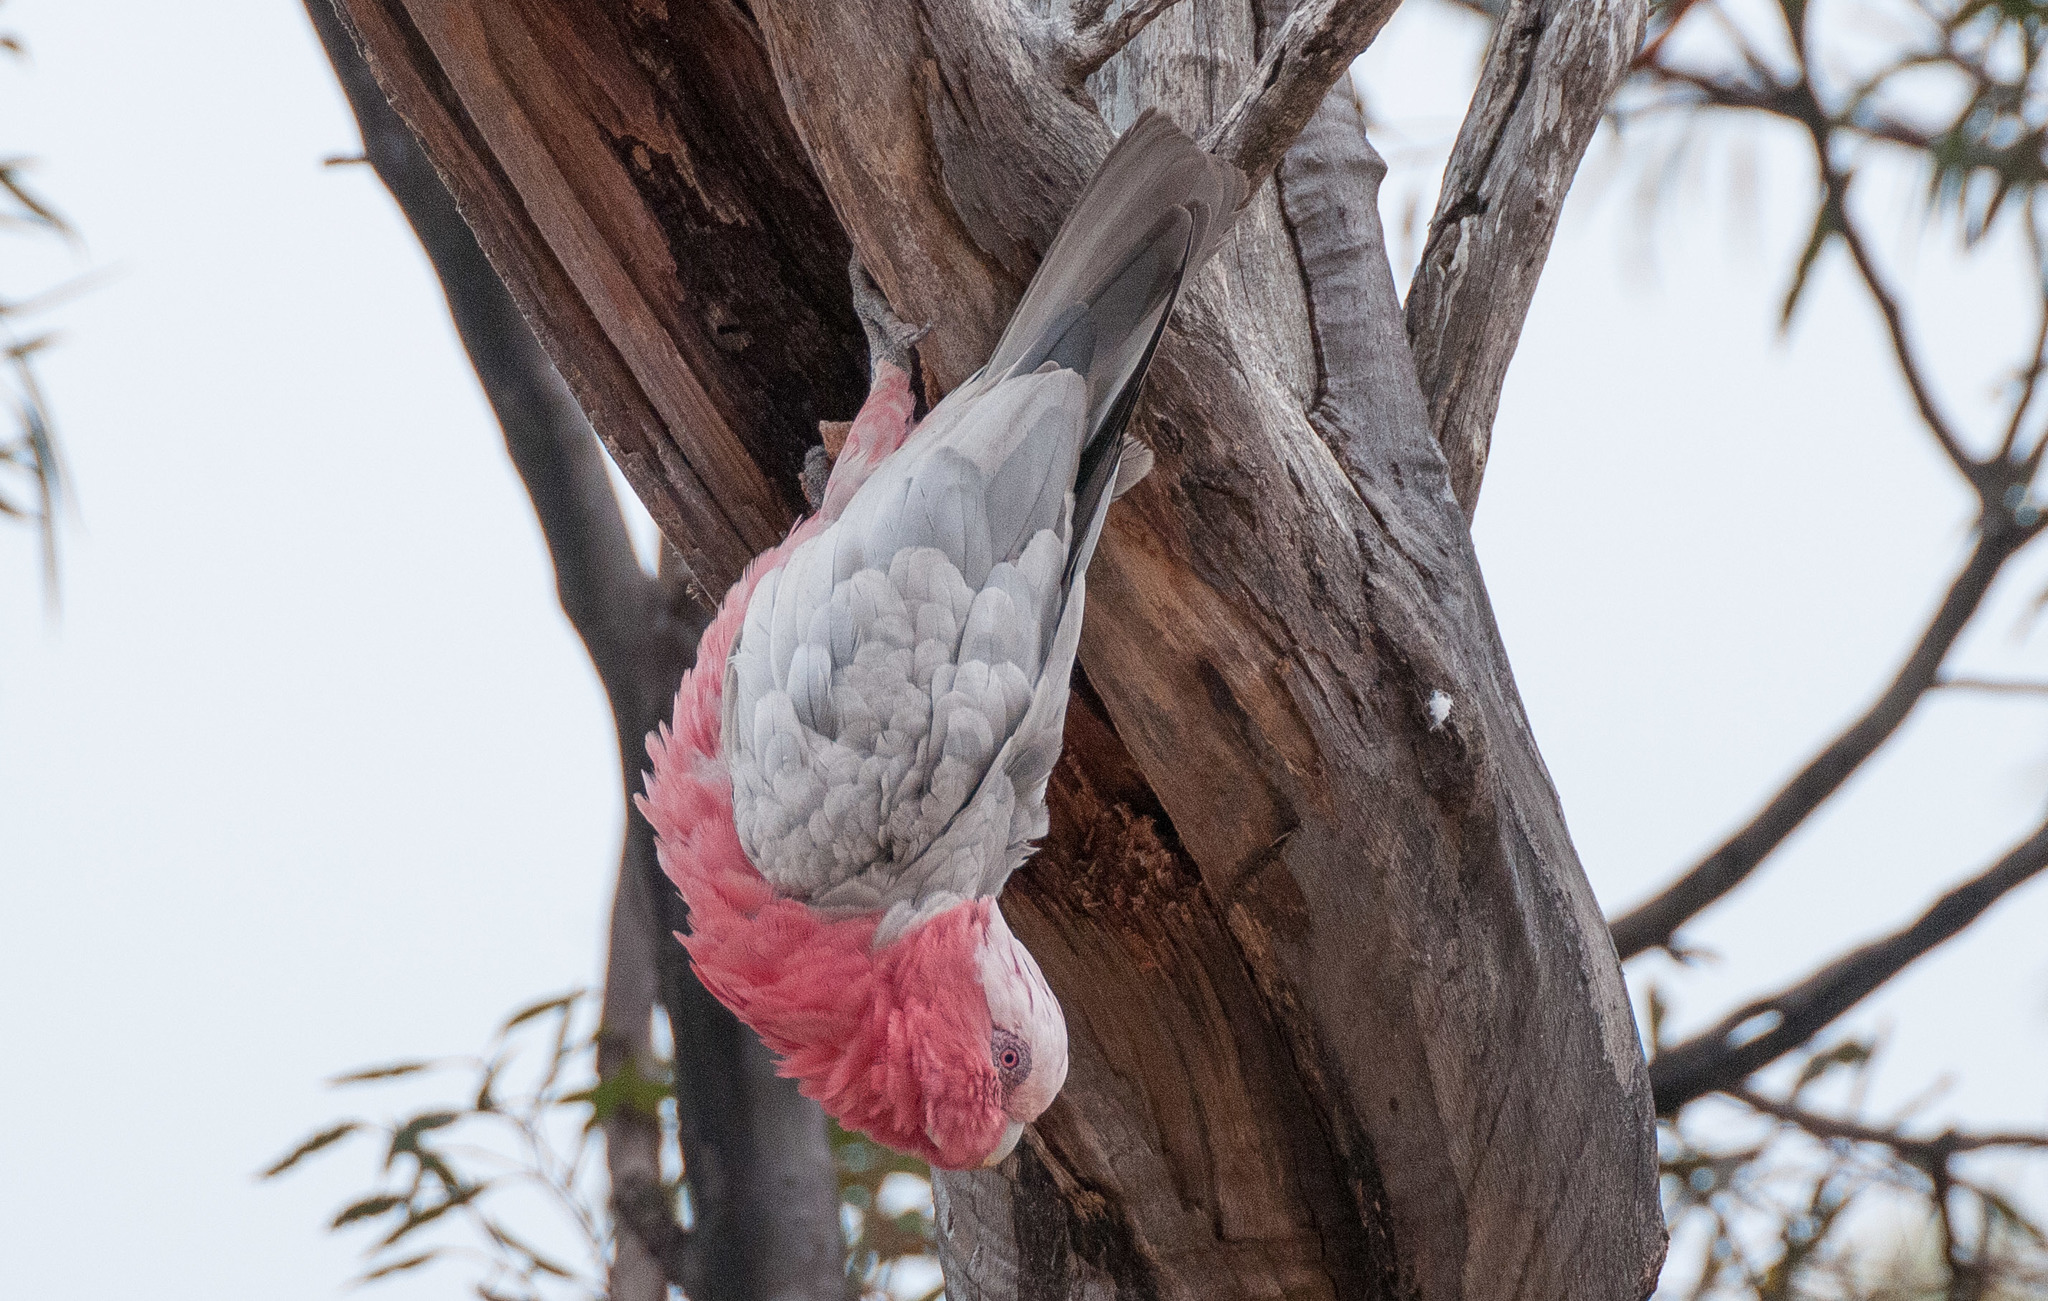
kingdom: Animalia
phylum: Chordata
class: Aves
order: Psittaciformes
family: Psittacidae
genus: Eolophus
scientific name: Eolophus roseicapilla
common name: Galah
